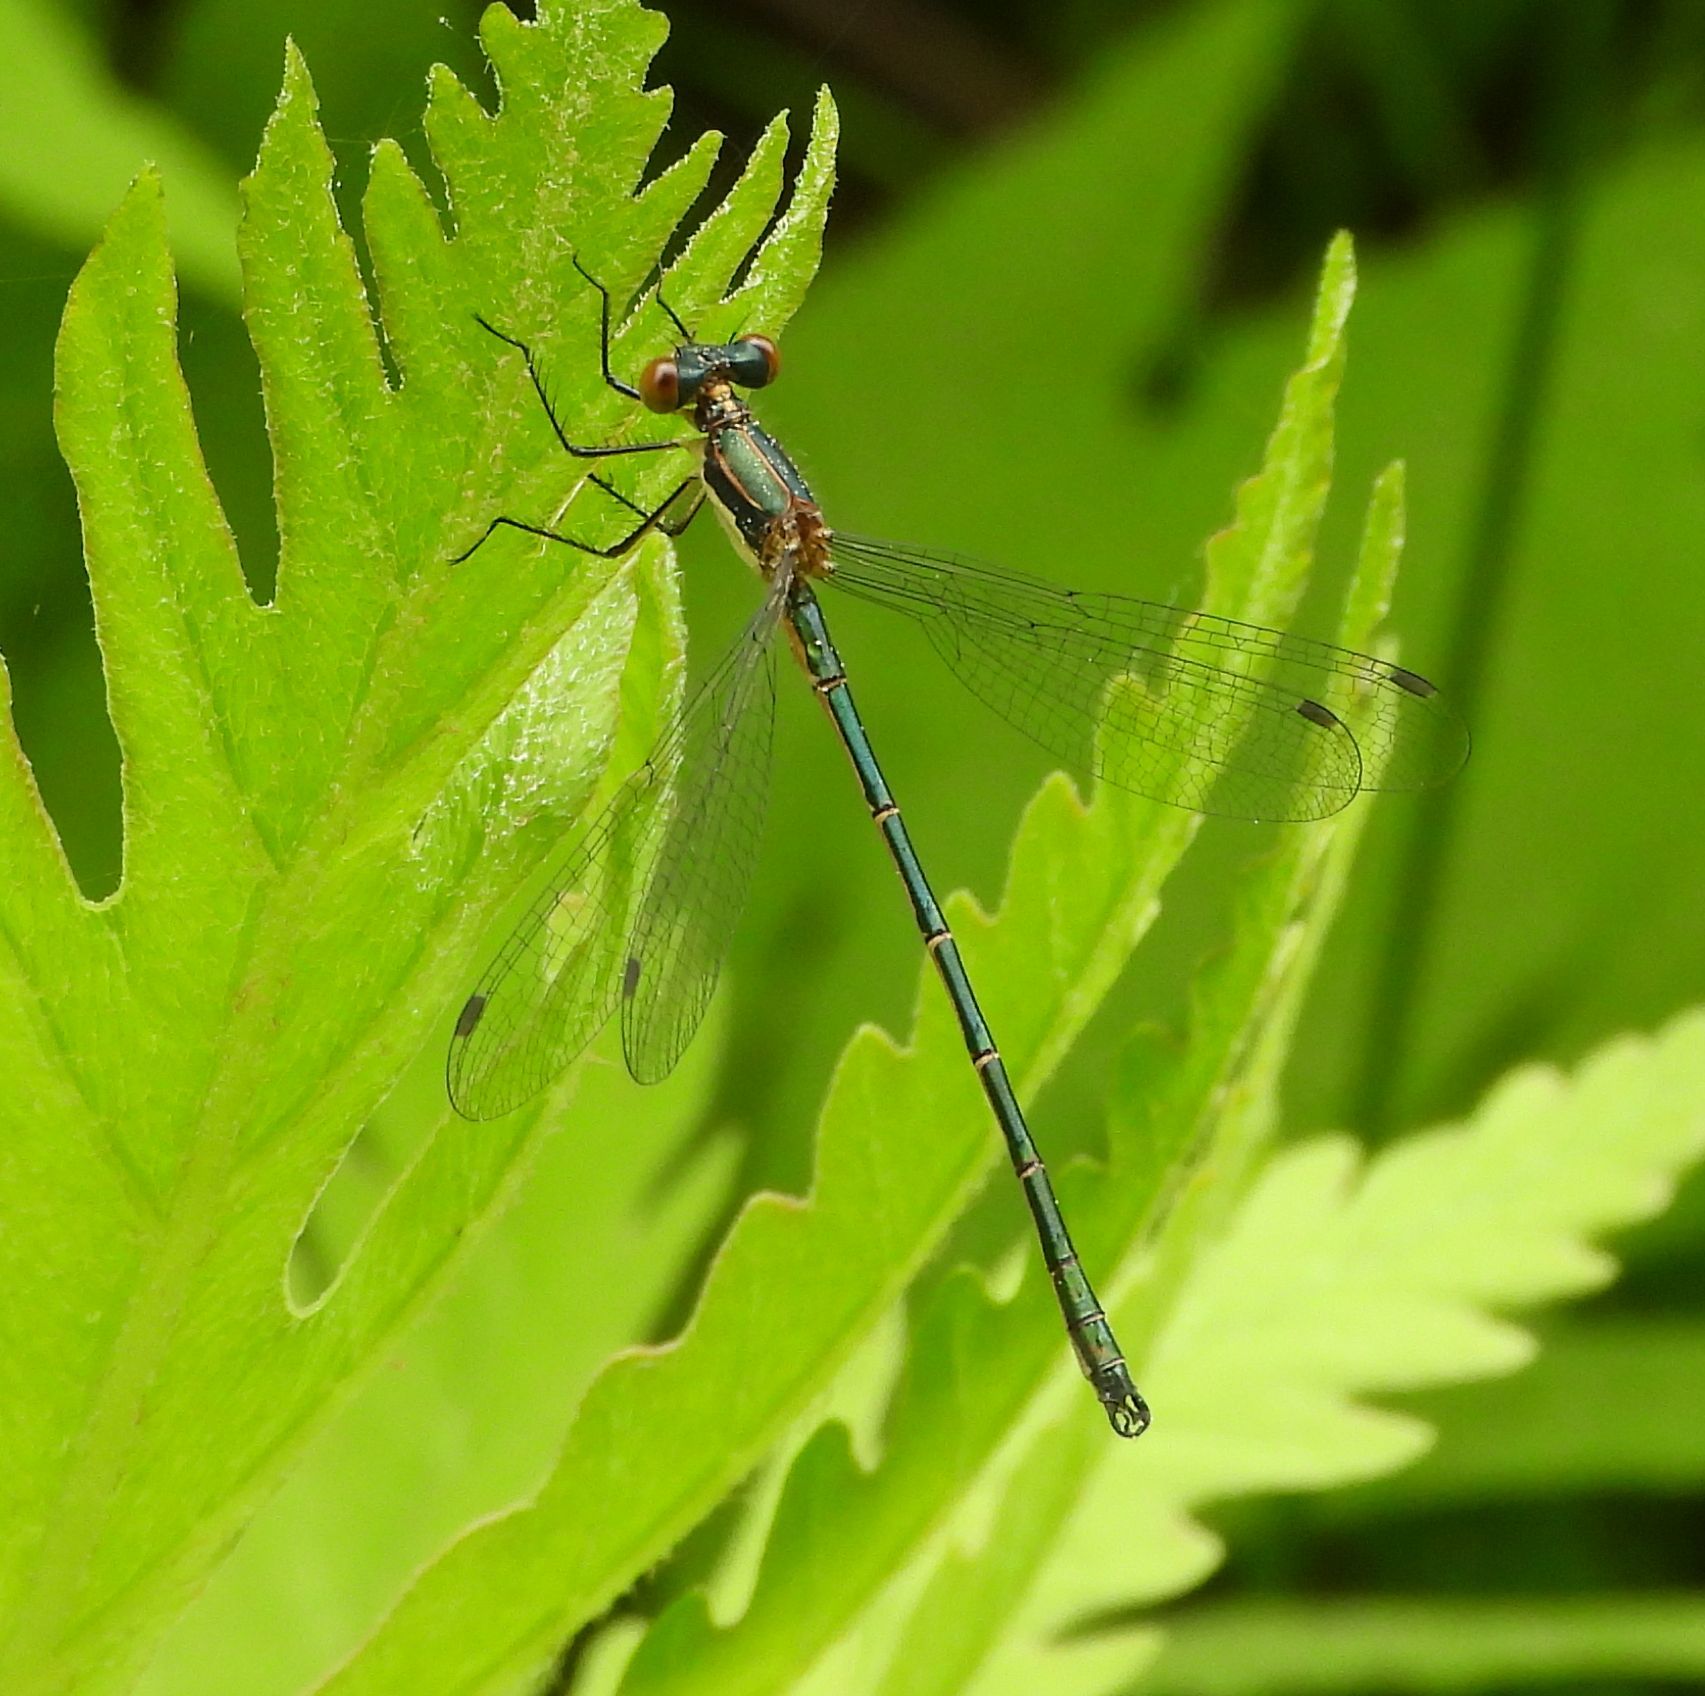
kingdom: Animalia
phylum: Arthropoda
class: Insecta
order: Odonata
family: Lestidae
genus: Lestes
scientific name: Lestes dryas
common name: Scarce emerald damselfly
